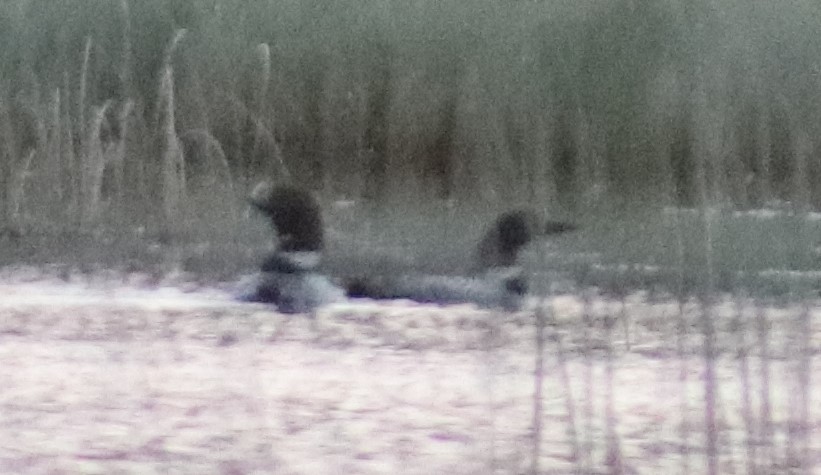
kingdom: Animalia
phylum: Chordata
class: Aves
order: Gaviiformes
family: Gaviidae
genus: Gavia
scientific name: Gavia immer
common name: Common loon
